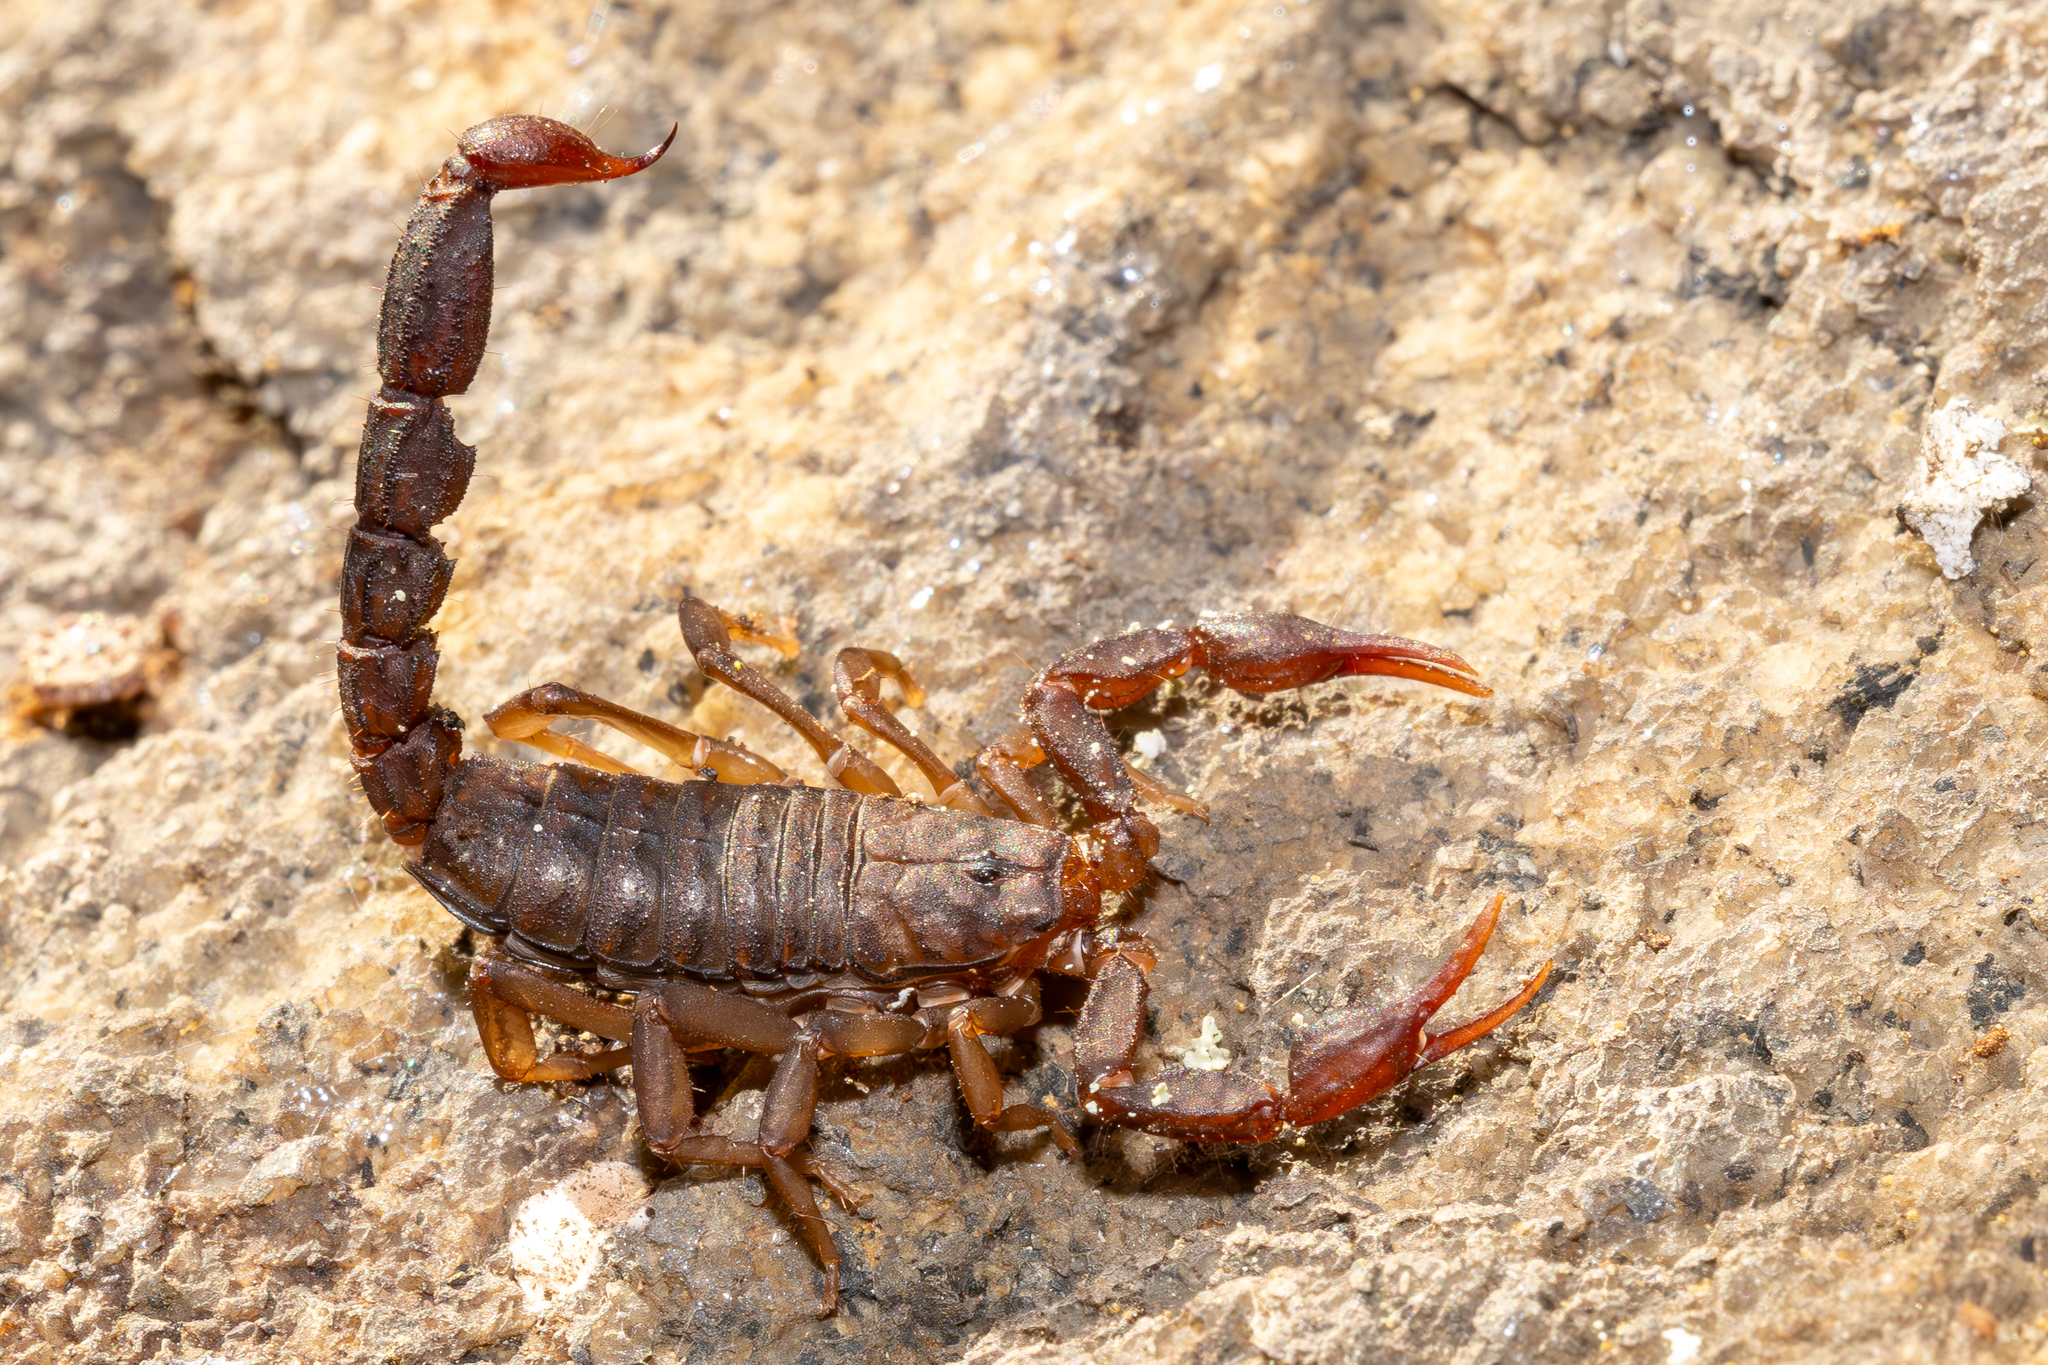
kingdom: Animalia
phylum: Arthropoda
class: Arachnida
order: Scorpiones
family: Vaejovidae
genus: Vaejovis
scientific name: Vaejovis carolinianus
